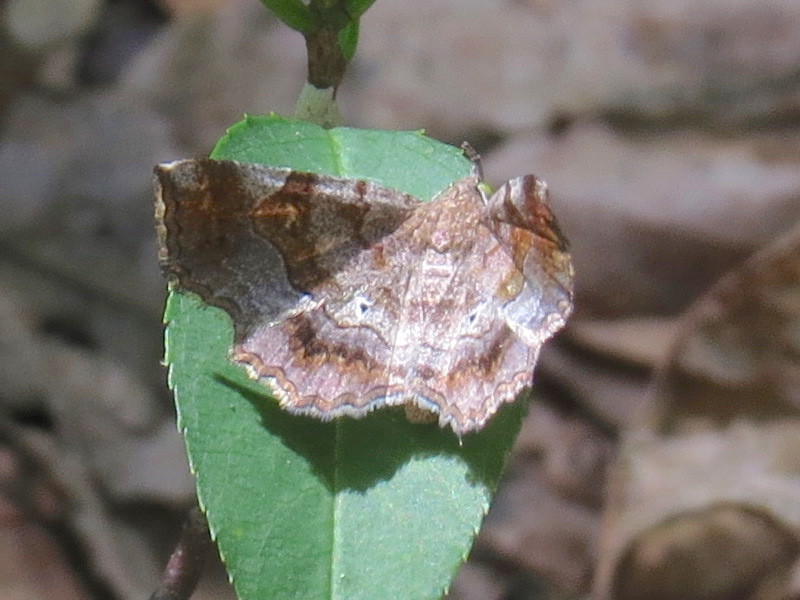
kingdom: Animalia
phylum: Arthropoda
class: Insecta
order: Lepidoptera
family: Erebidae
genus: Pangrapta
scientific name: Pangrapta decoralis
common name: Decorated owlet
